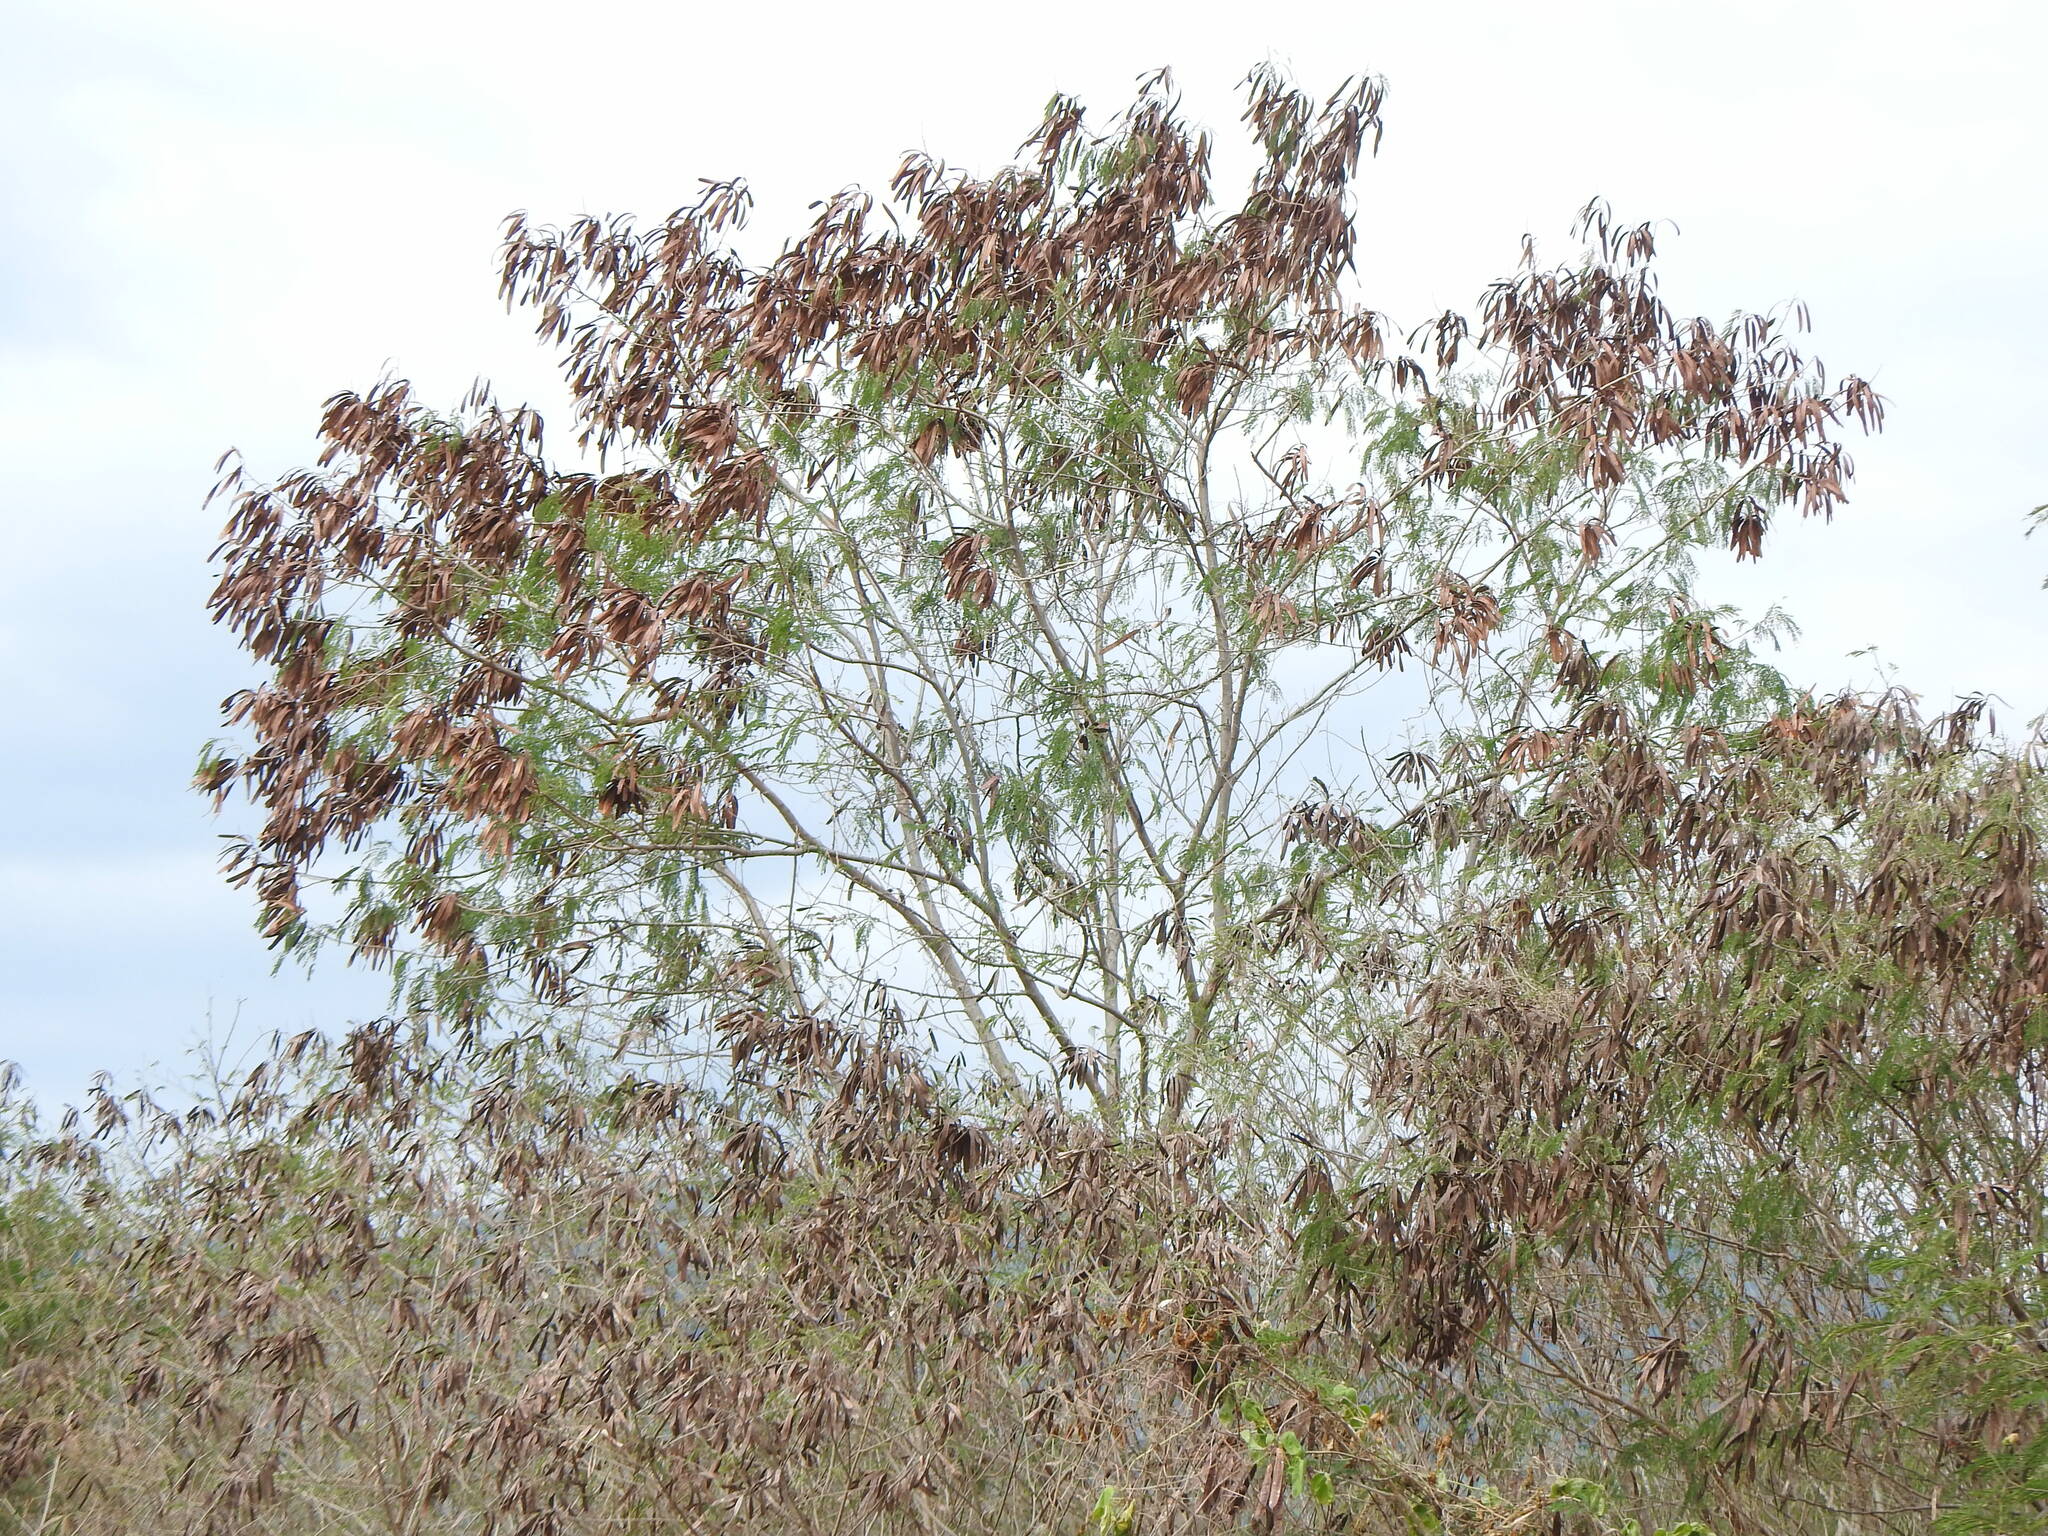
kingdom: Plantae
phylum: Tracheophyta
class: Magnoliopsida
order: Fabales
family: Fabaceae
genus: Leucaena
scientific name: Leucaena leucocephala
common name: White leadtree
